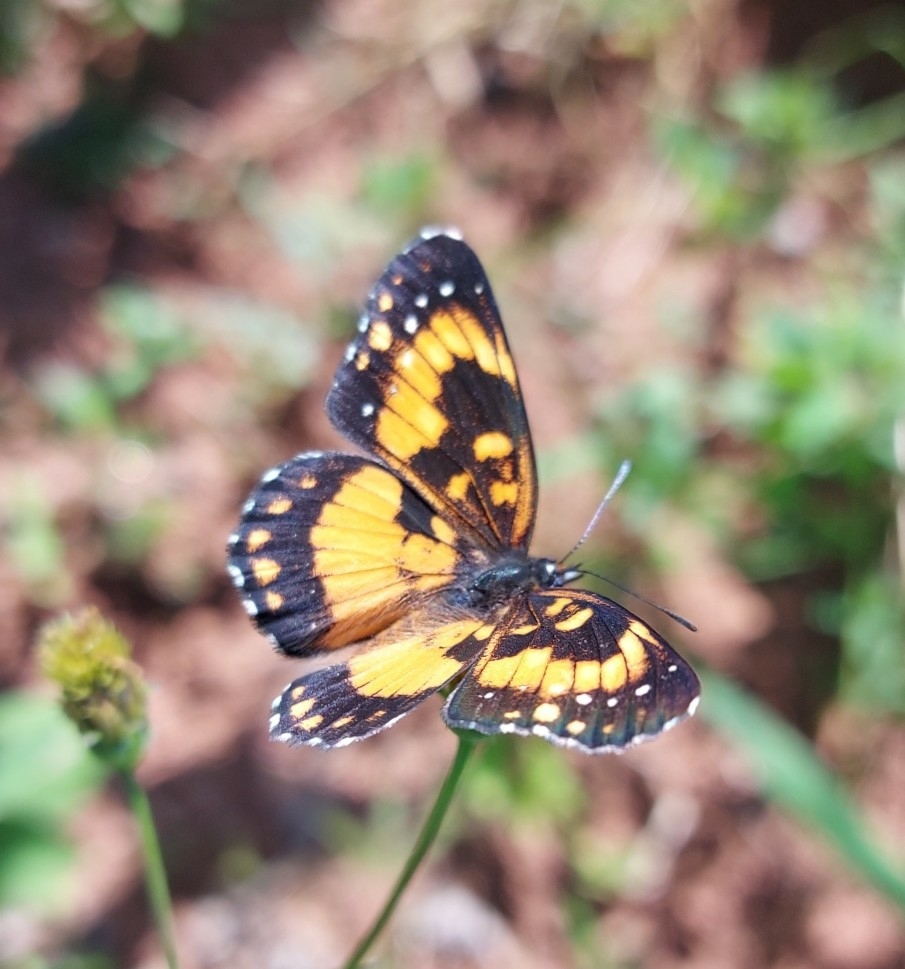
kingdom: Animalia
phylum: Arthropoda
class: Insecta
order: Lepidoptera
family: Nymphalidae
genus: Chlosyne
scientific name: Chlosyne lacinia
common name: Bordered patch
